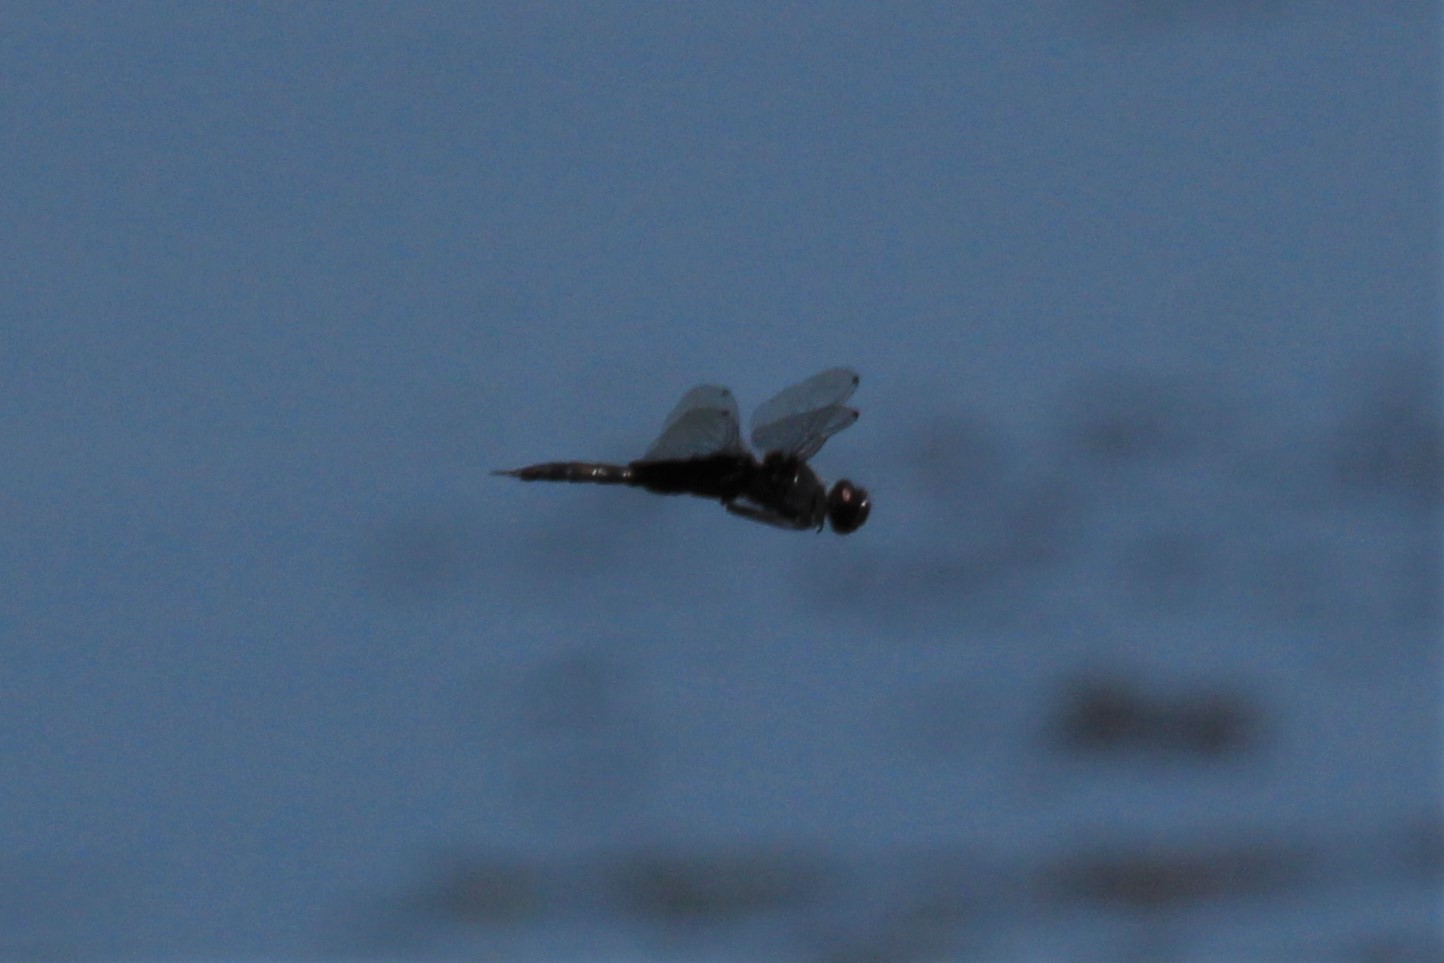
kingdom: Animalia
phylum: Arthropoda
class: Insecta
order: Odonata
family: Libellulidae
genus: Tramea
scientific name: Tramea lacerata
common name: Black saddlebags
